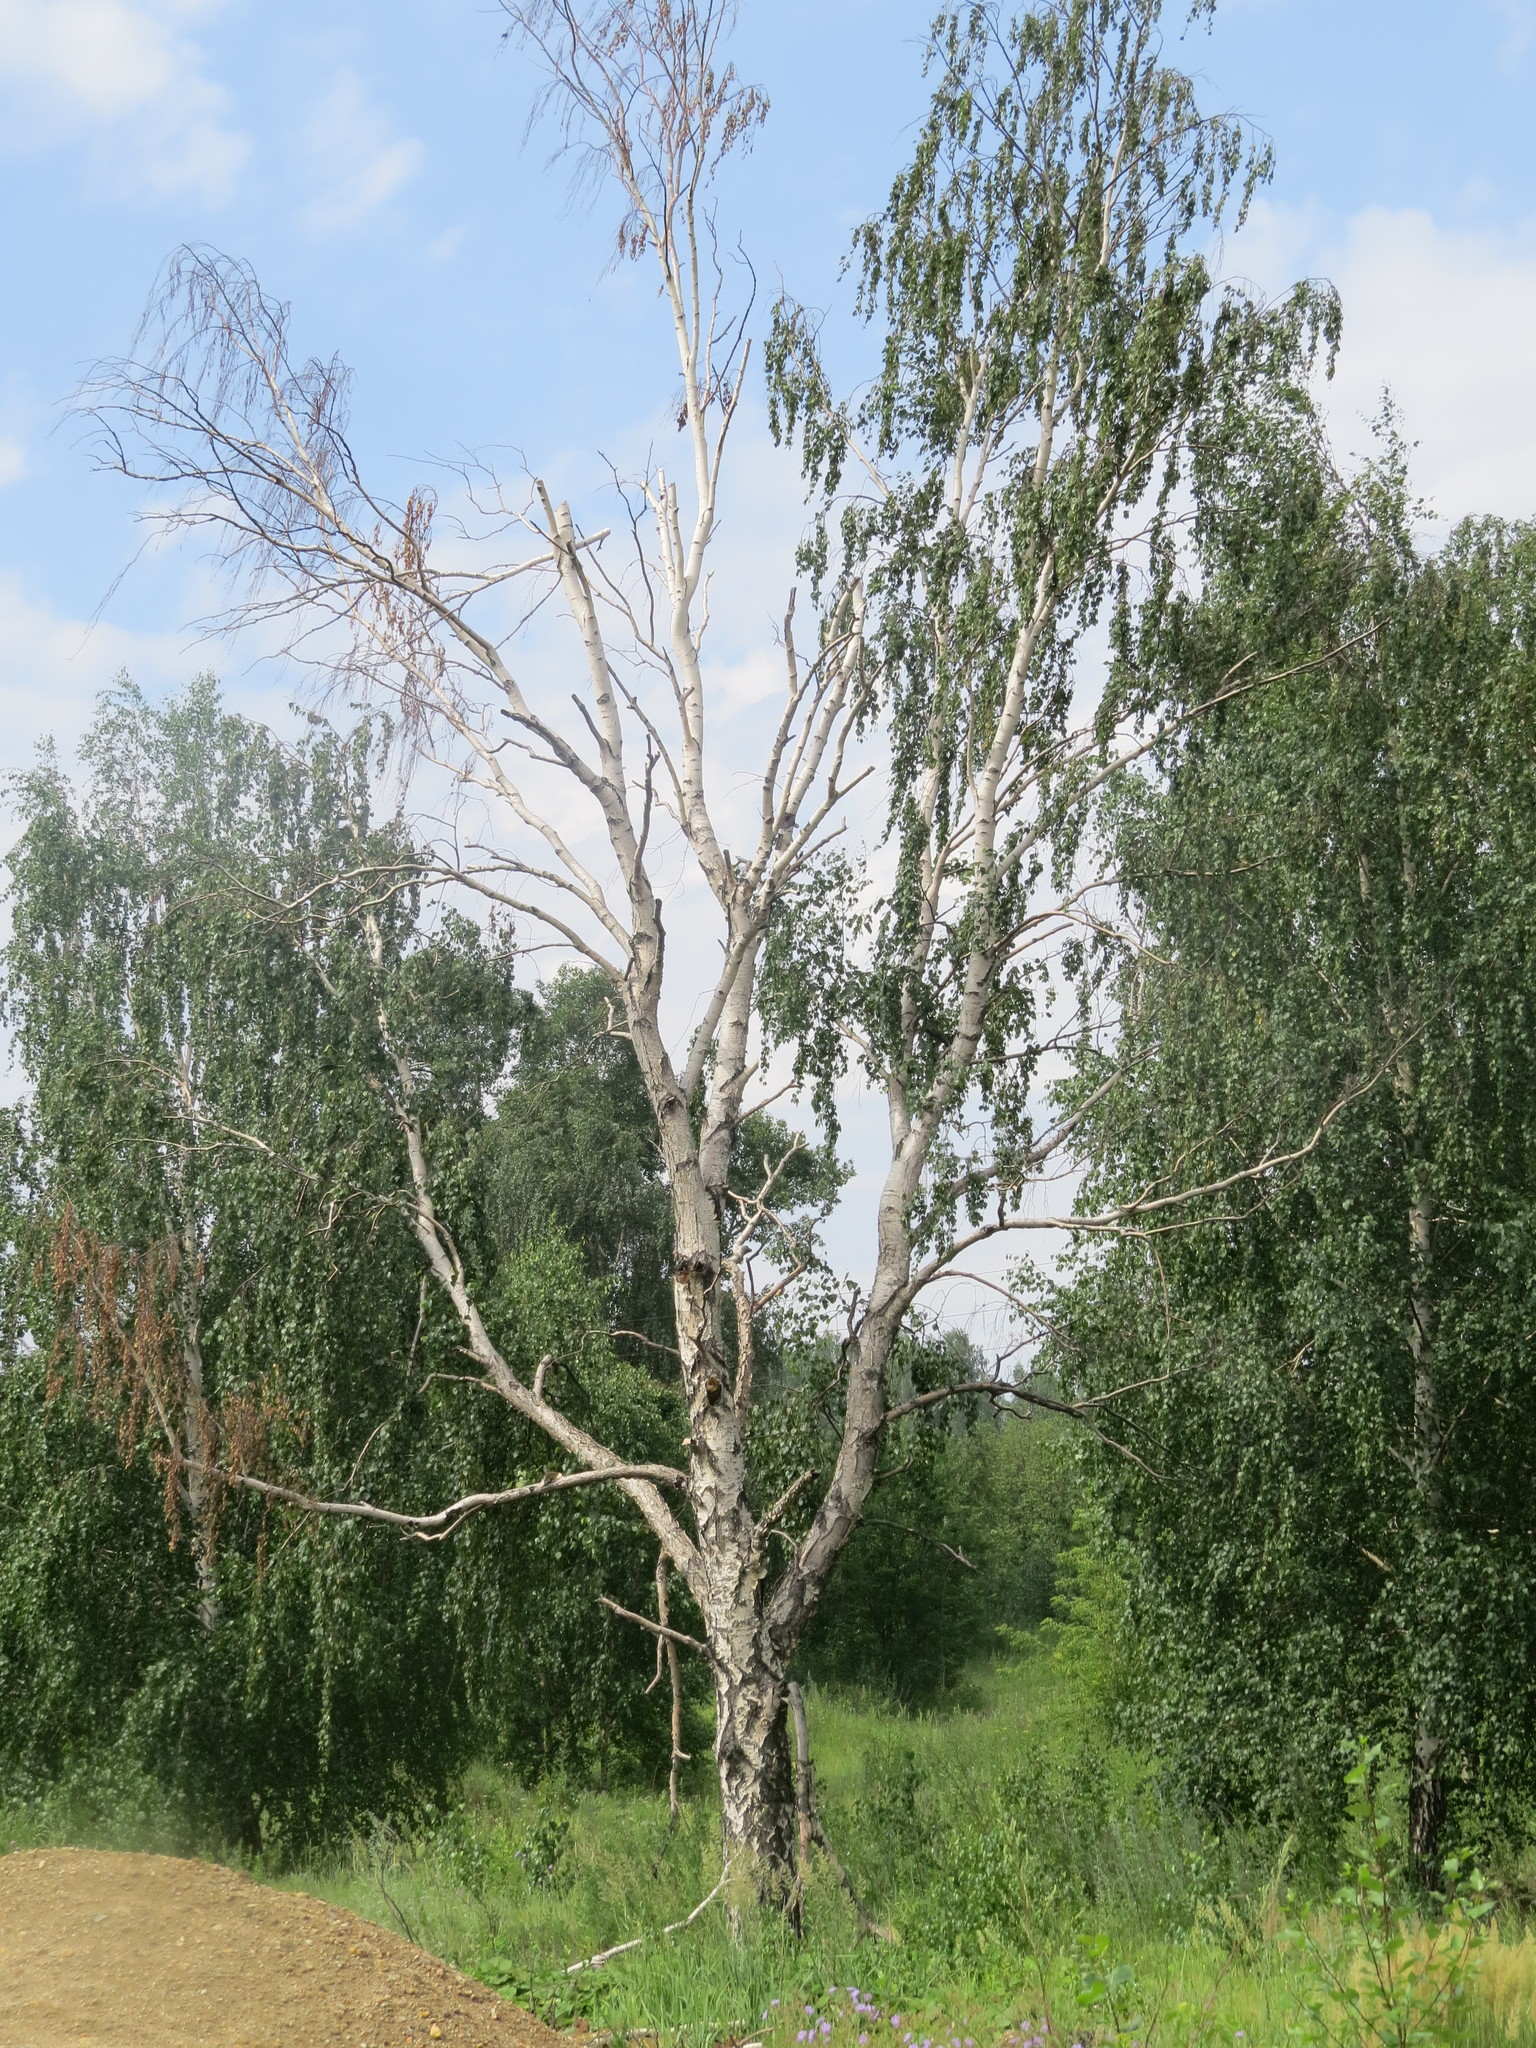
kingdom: Plantae
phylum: Tracheophyta
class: Magnoliopsida
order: Fagales
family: Betulaceae
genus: Betula
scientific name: Betula
